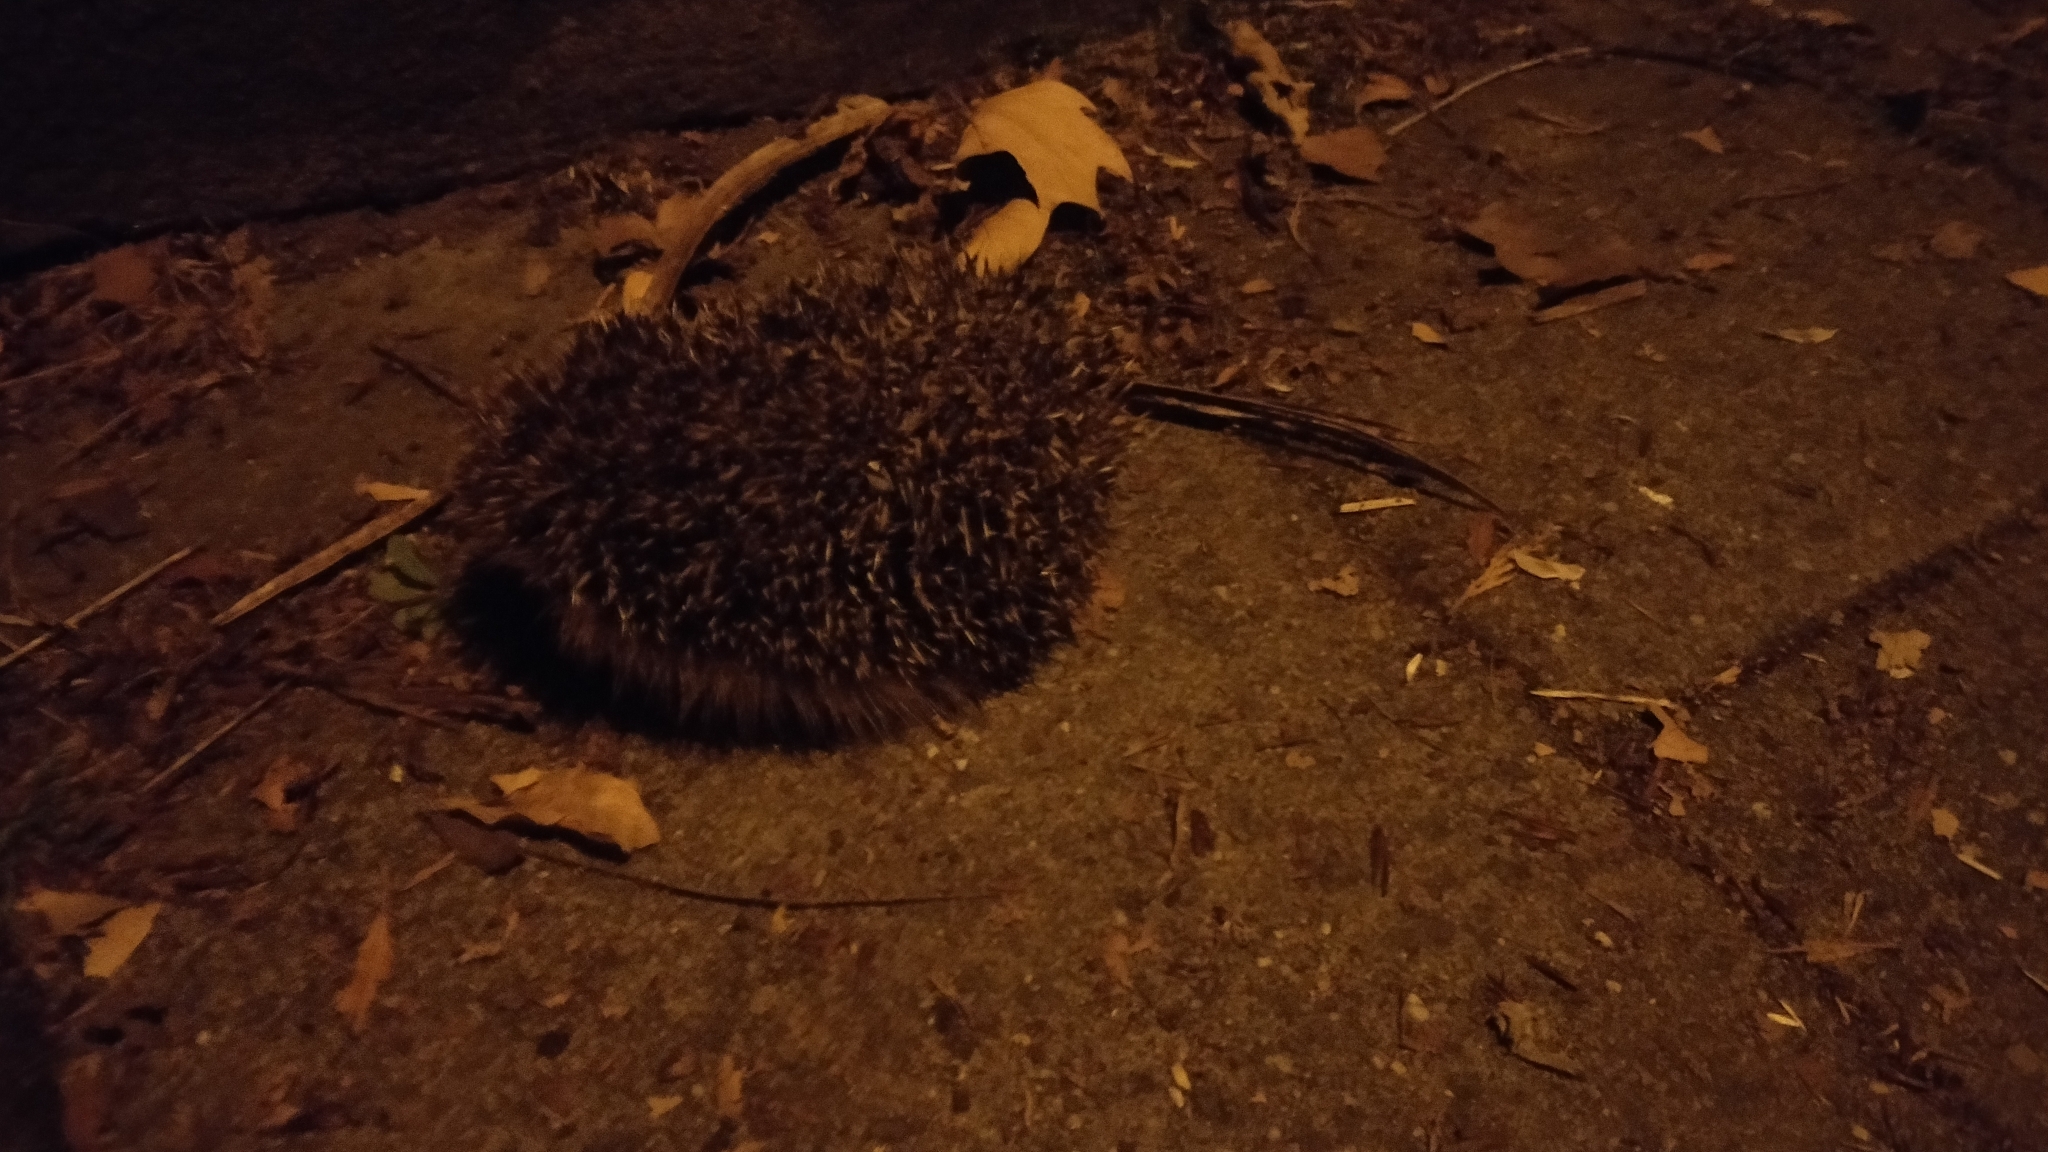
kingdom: Animalia
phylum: Chordata
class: Mammalia
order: Erinaceomorpha
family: Erinaceidae
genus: Erinaceus
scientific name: Erinaceus europaeus
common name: West european hedgehog
